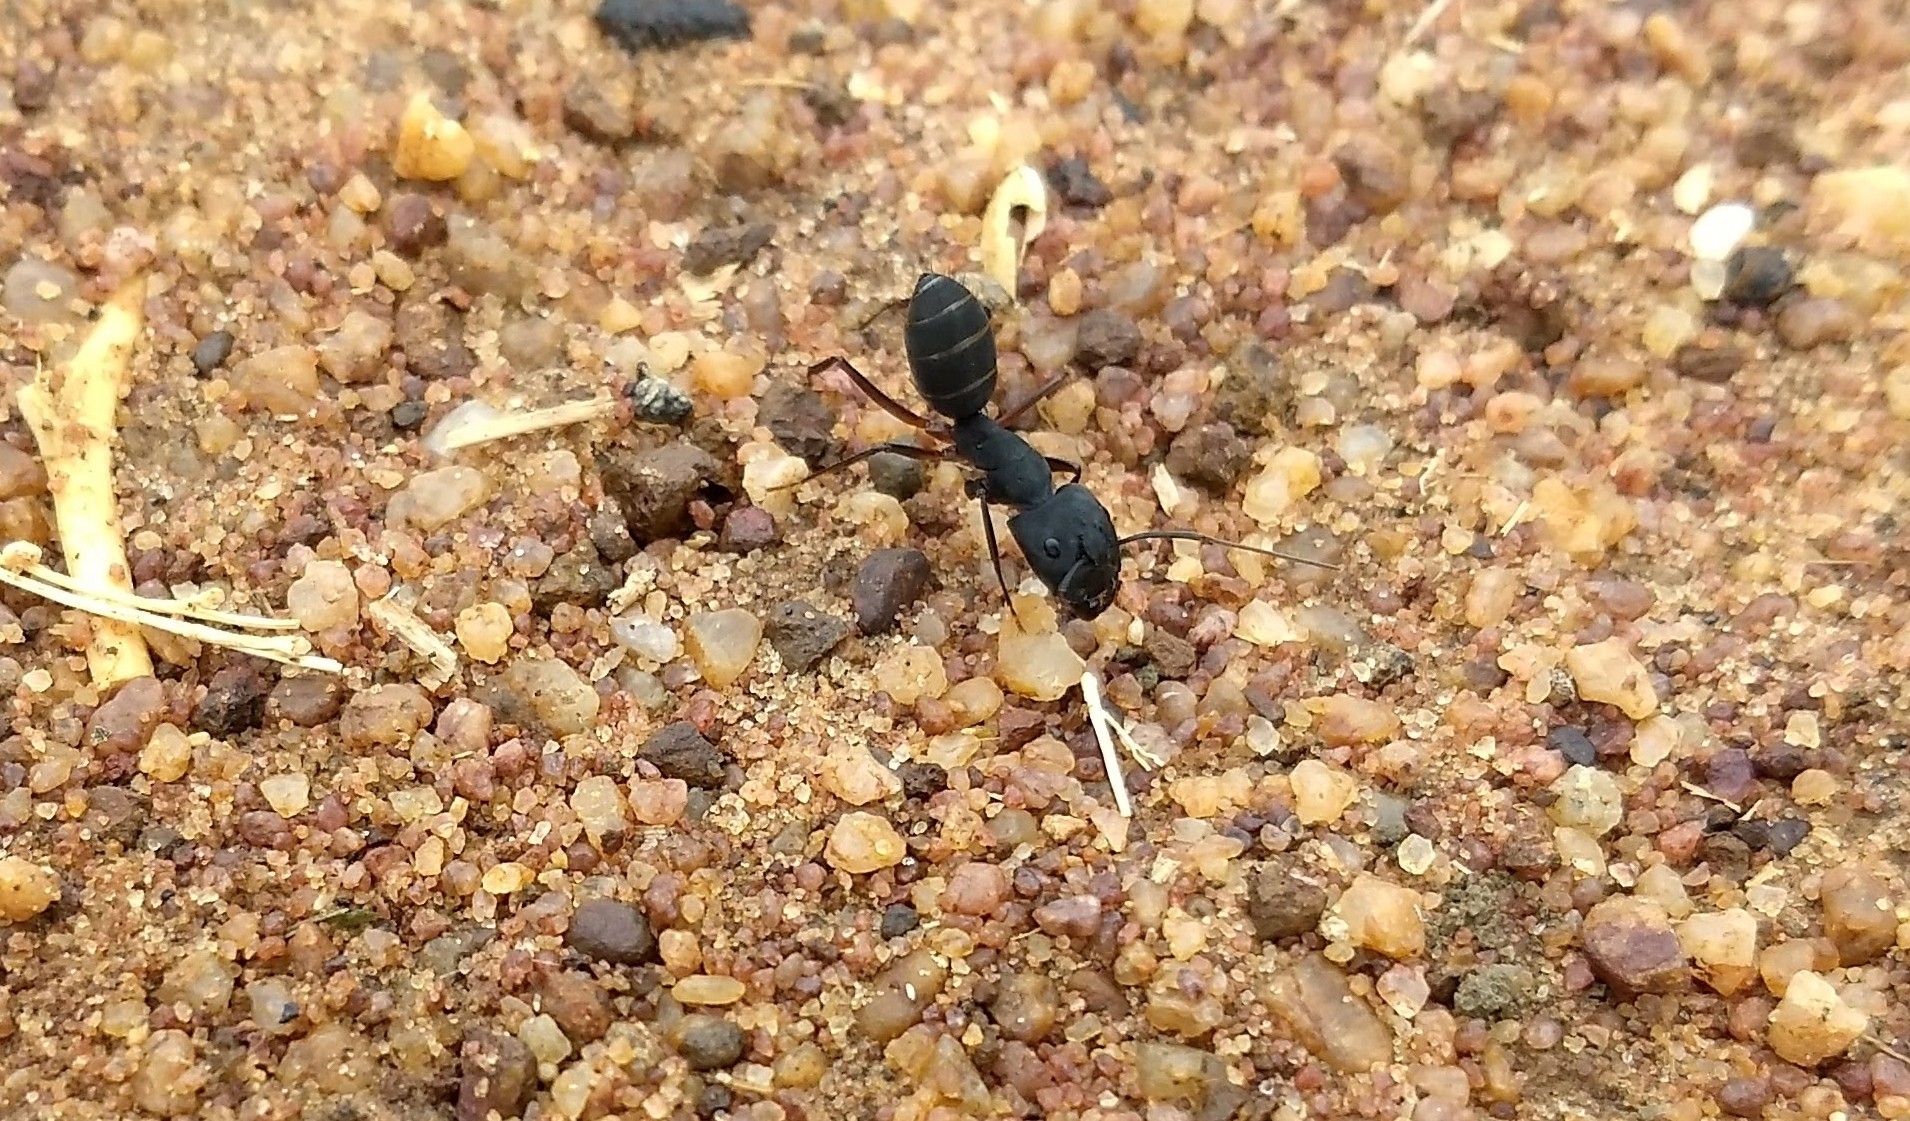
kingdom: Animalia
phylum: Arthropoda
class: Insecta
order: Hymenoptera
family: Formicidae
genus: Camponotus
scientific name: Camponotus compressus
